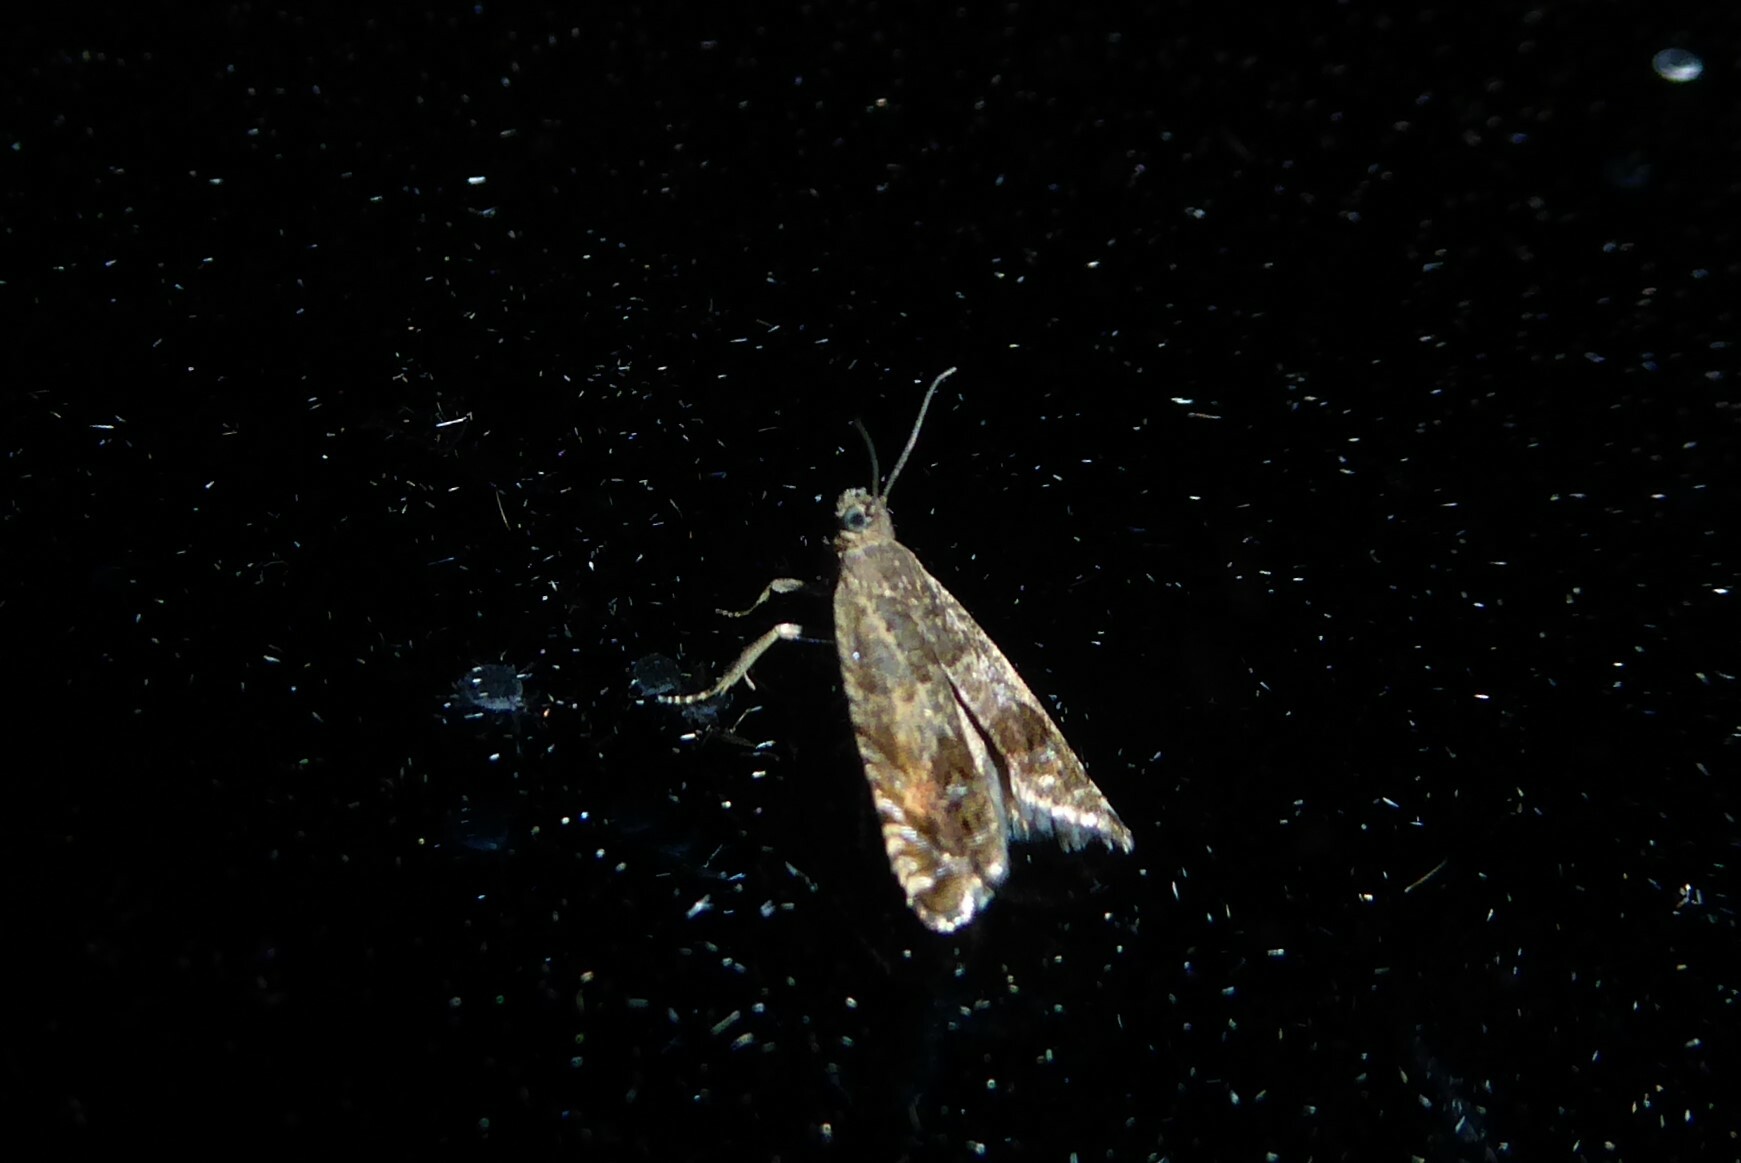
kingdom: Animalia
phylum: Arthropoda
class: Insecta
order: Lepidoptera
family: Tortricidae
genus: Cydia
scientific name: Cydia succedana
